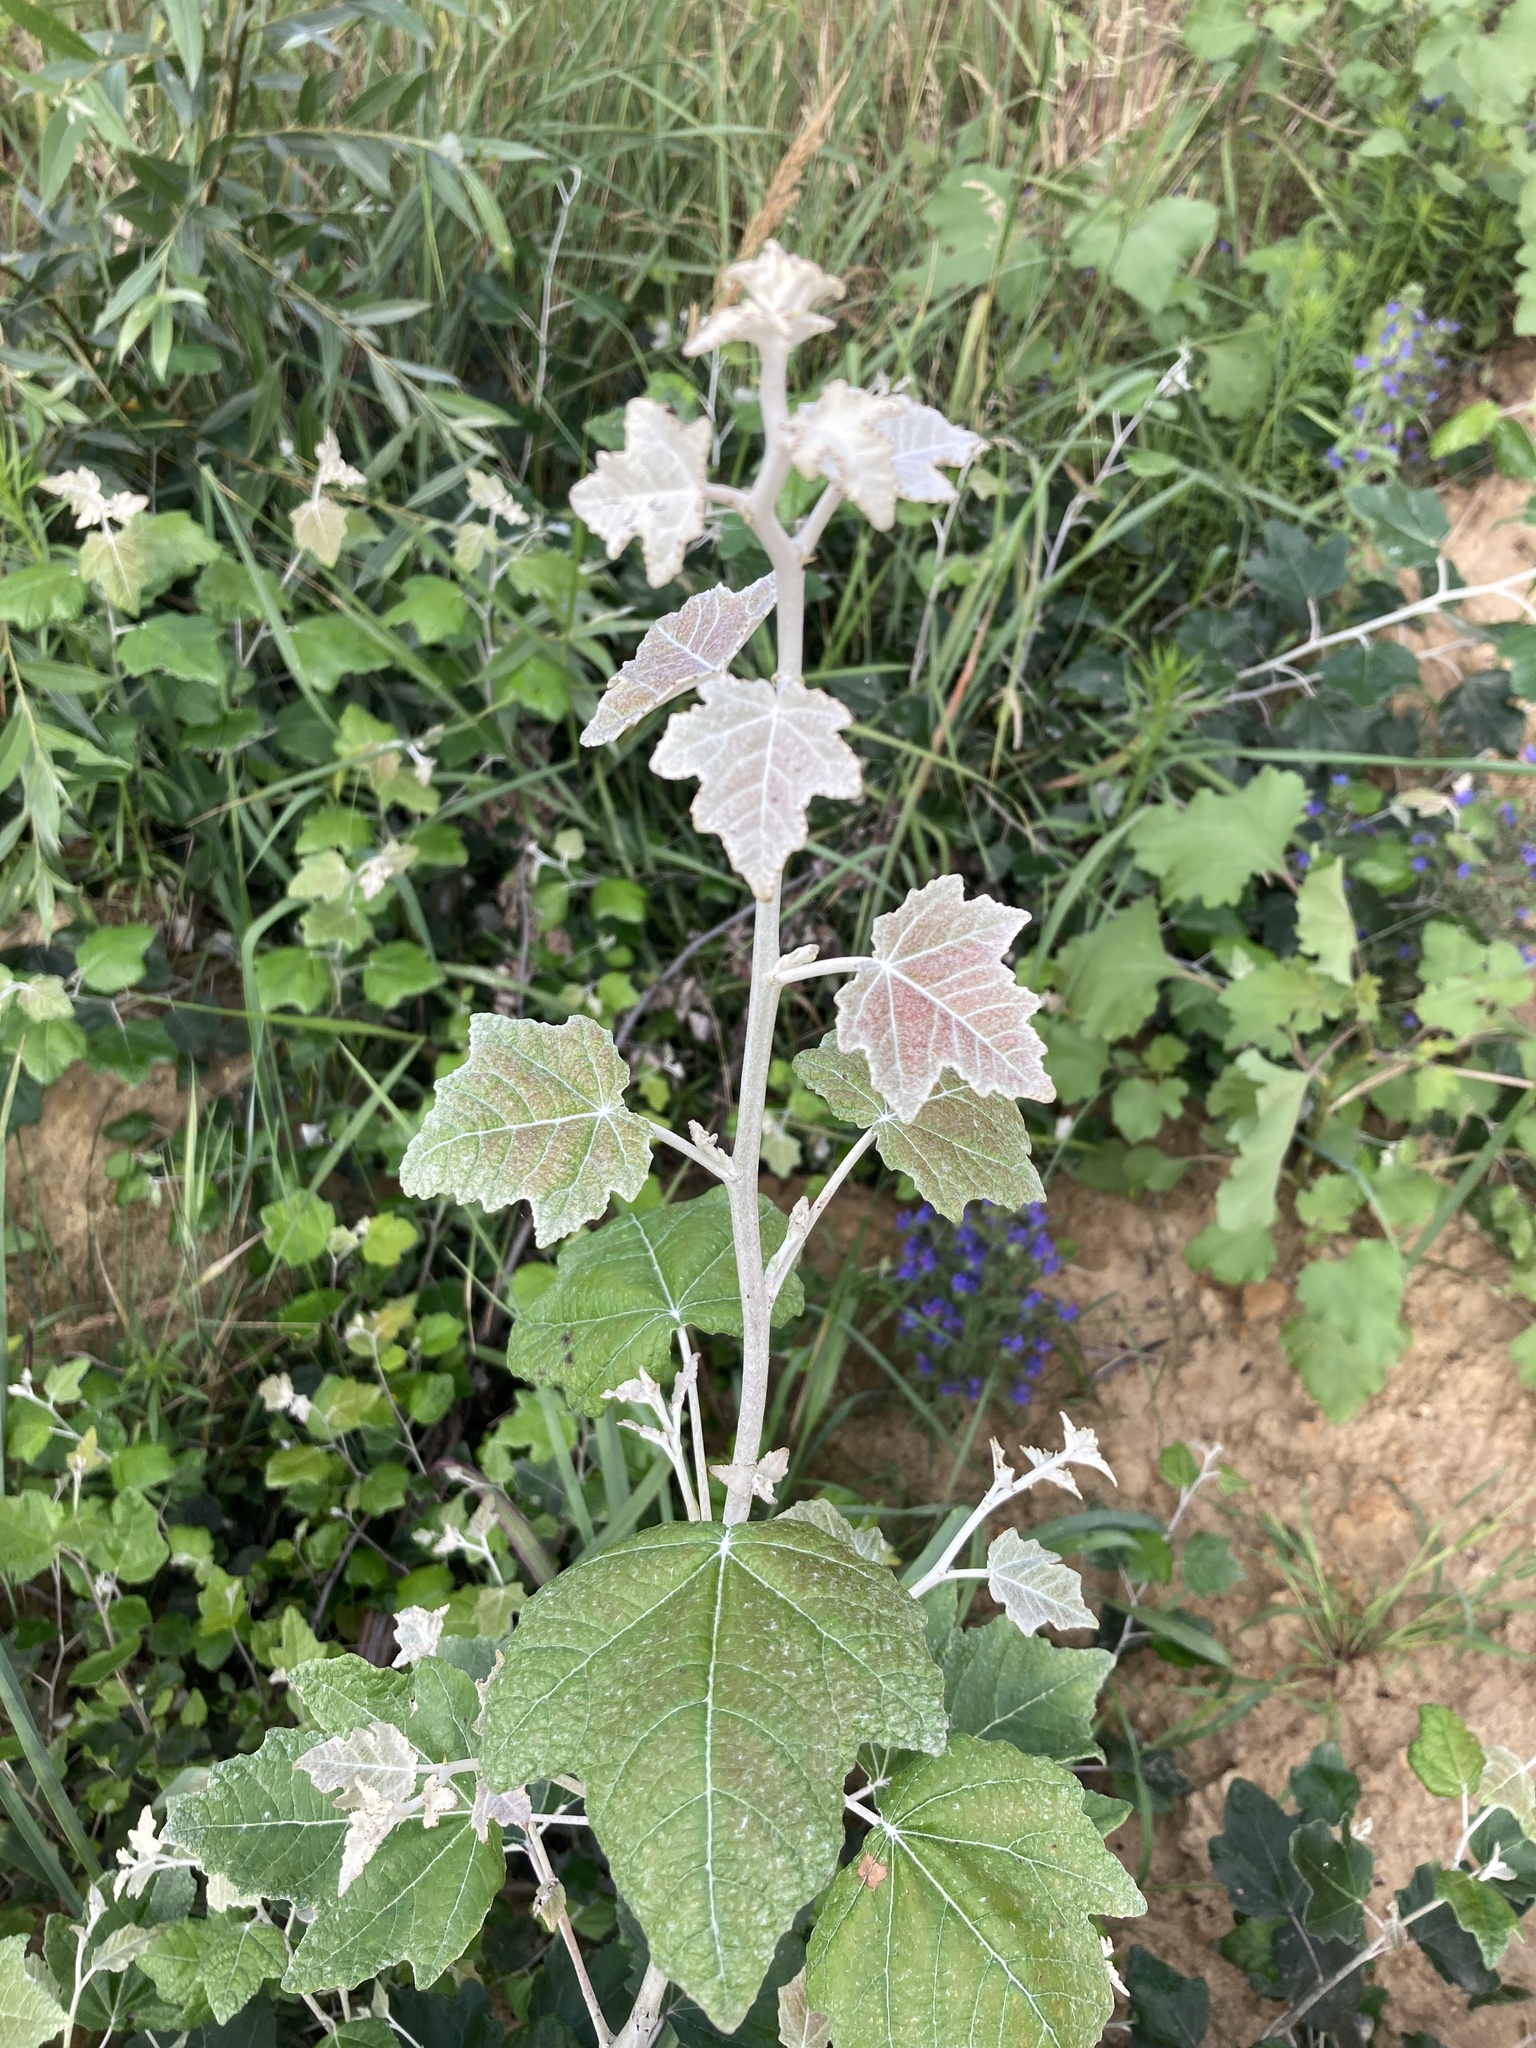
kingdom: Plantae
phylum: Tracheophyta
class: Magnoliopsida
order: Malpighiales
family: Salicaceae
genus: Populus
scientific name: Populus alba
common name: White poplar
